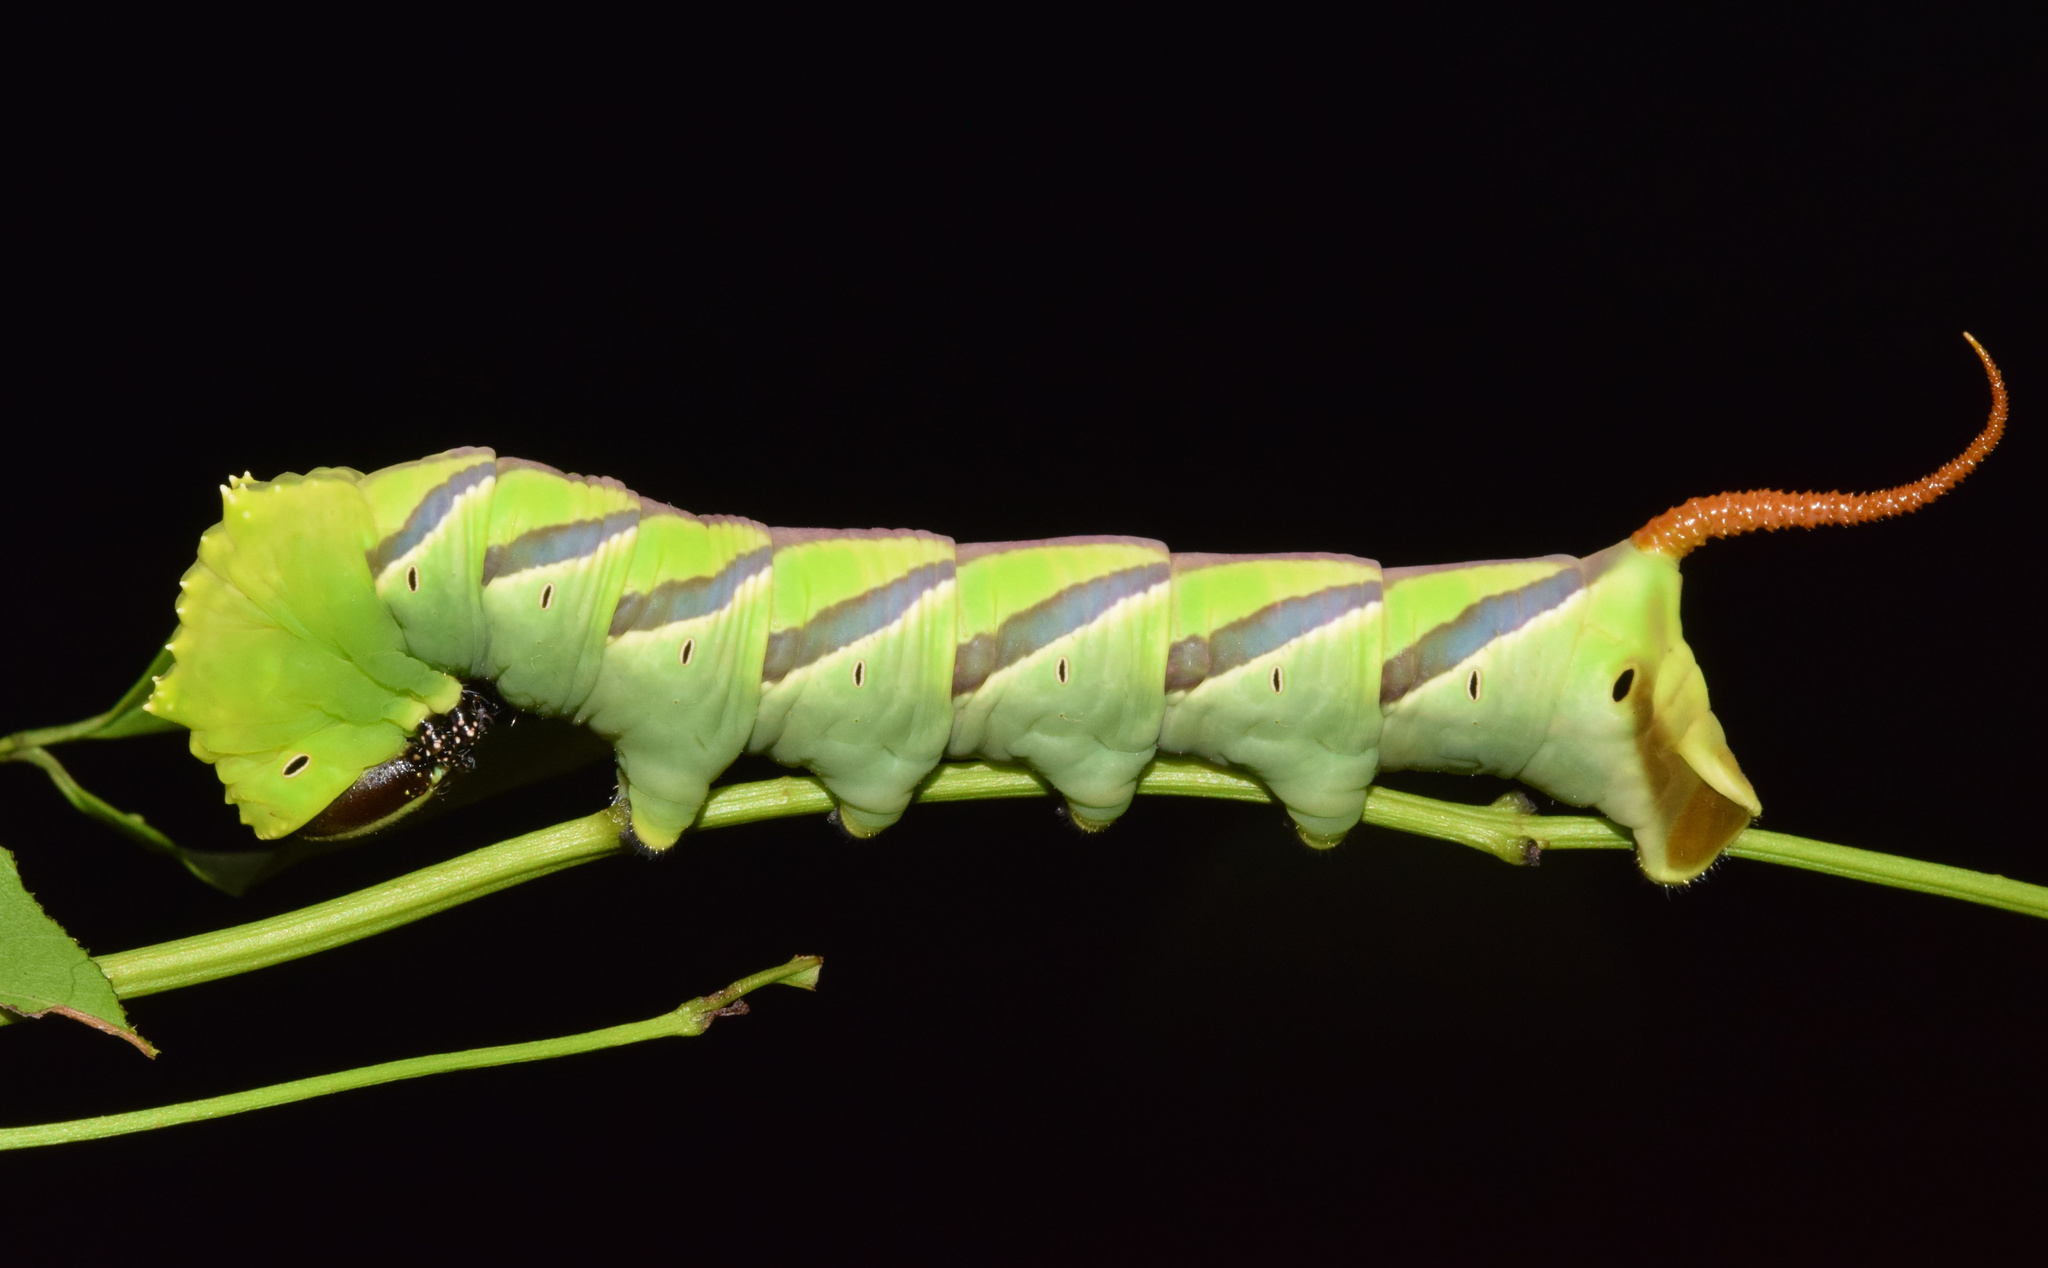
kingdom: Animalia
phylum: Arthropoda
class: Insecta
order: Lepidoptera
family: Sphingidae
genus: Coelonia
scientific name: Coelonia fulvinotata
